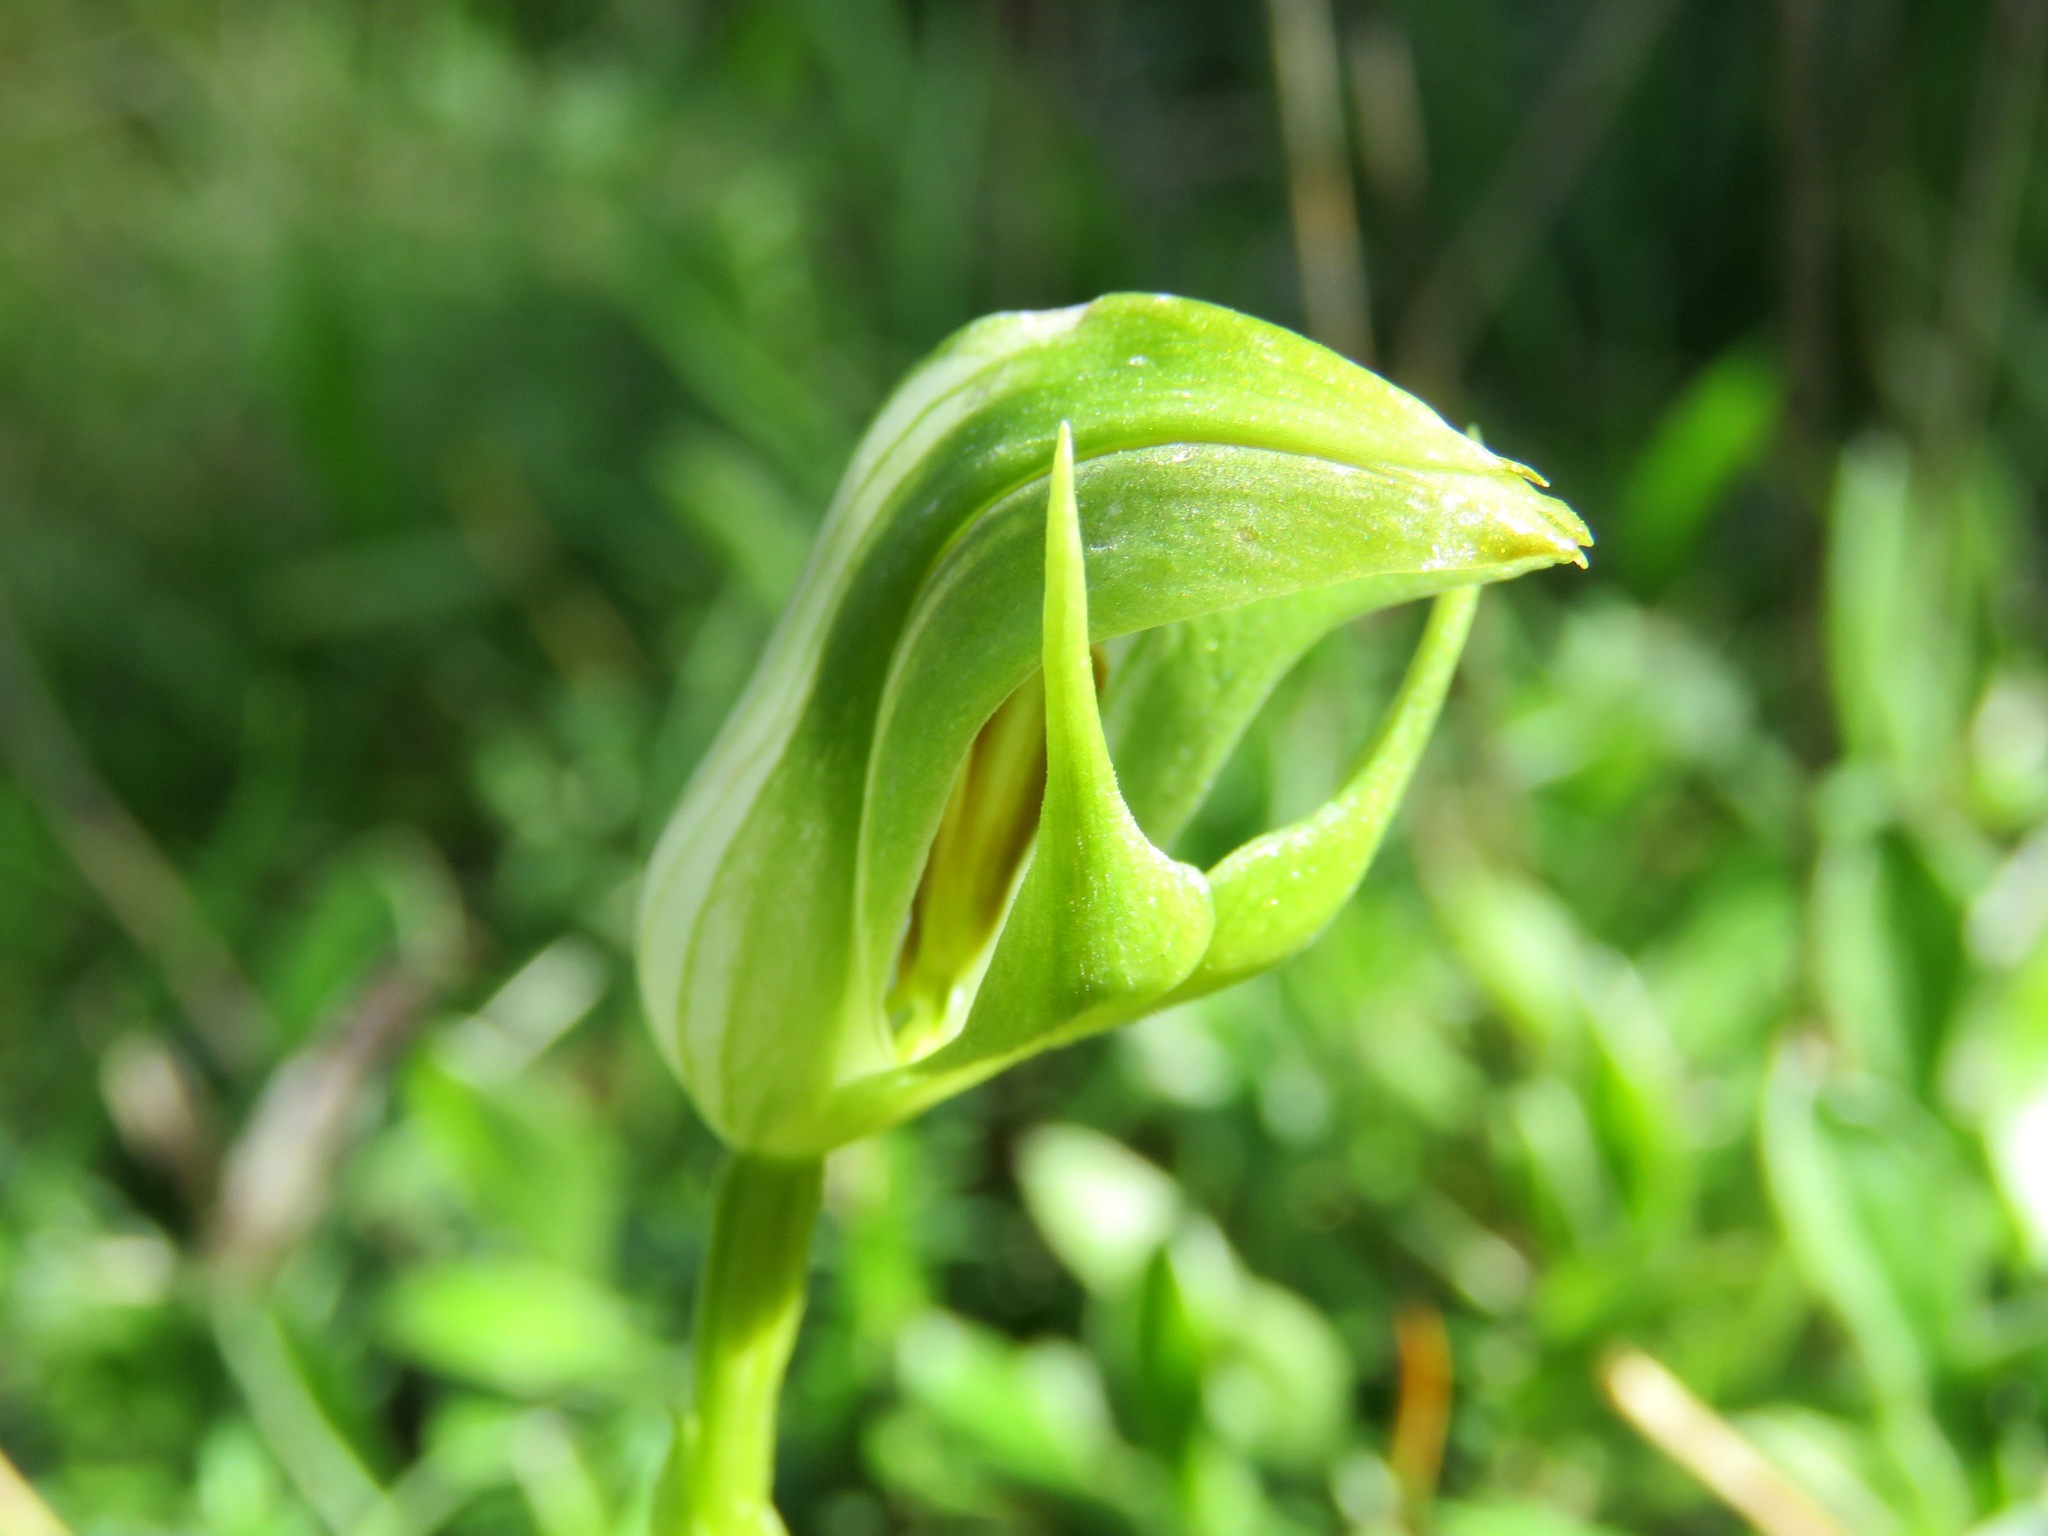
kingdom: Plantae
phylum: Tracheophyta
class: Liliopsida
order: Asparagales
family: Orchidaceae
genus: Pterostylis
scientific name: Pterostylis curta
